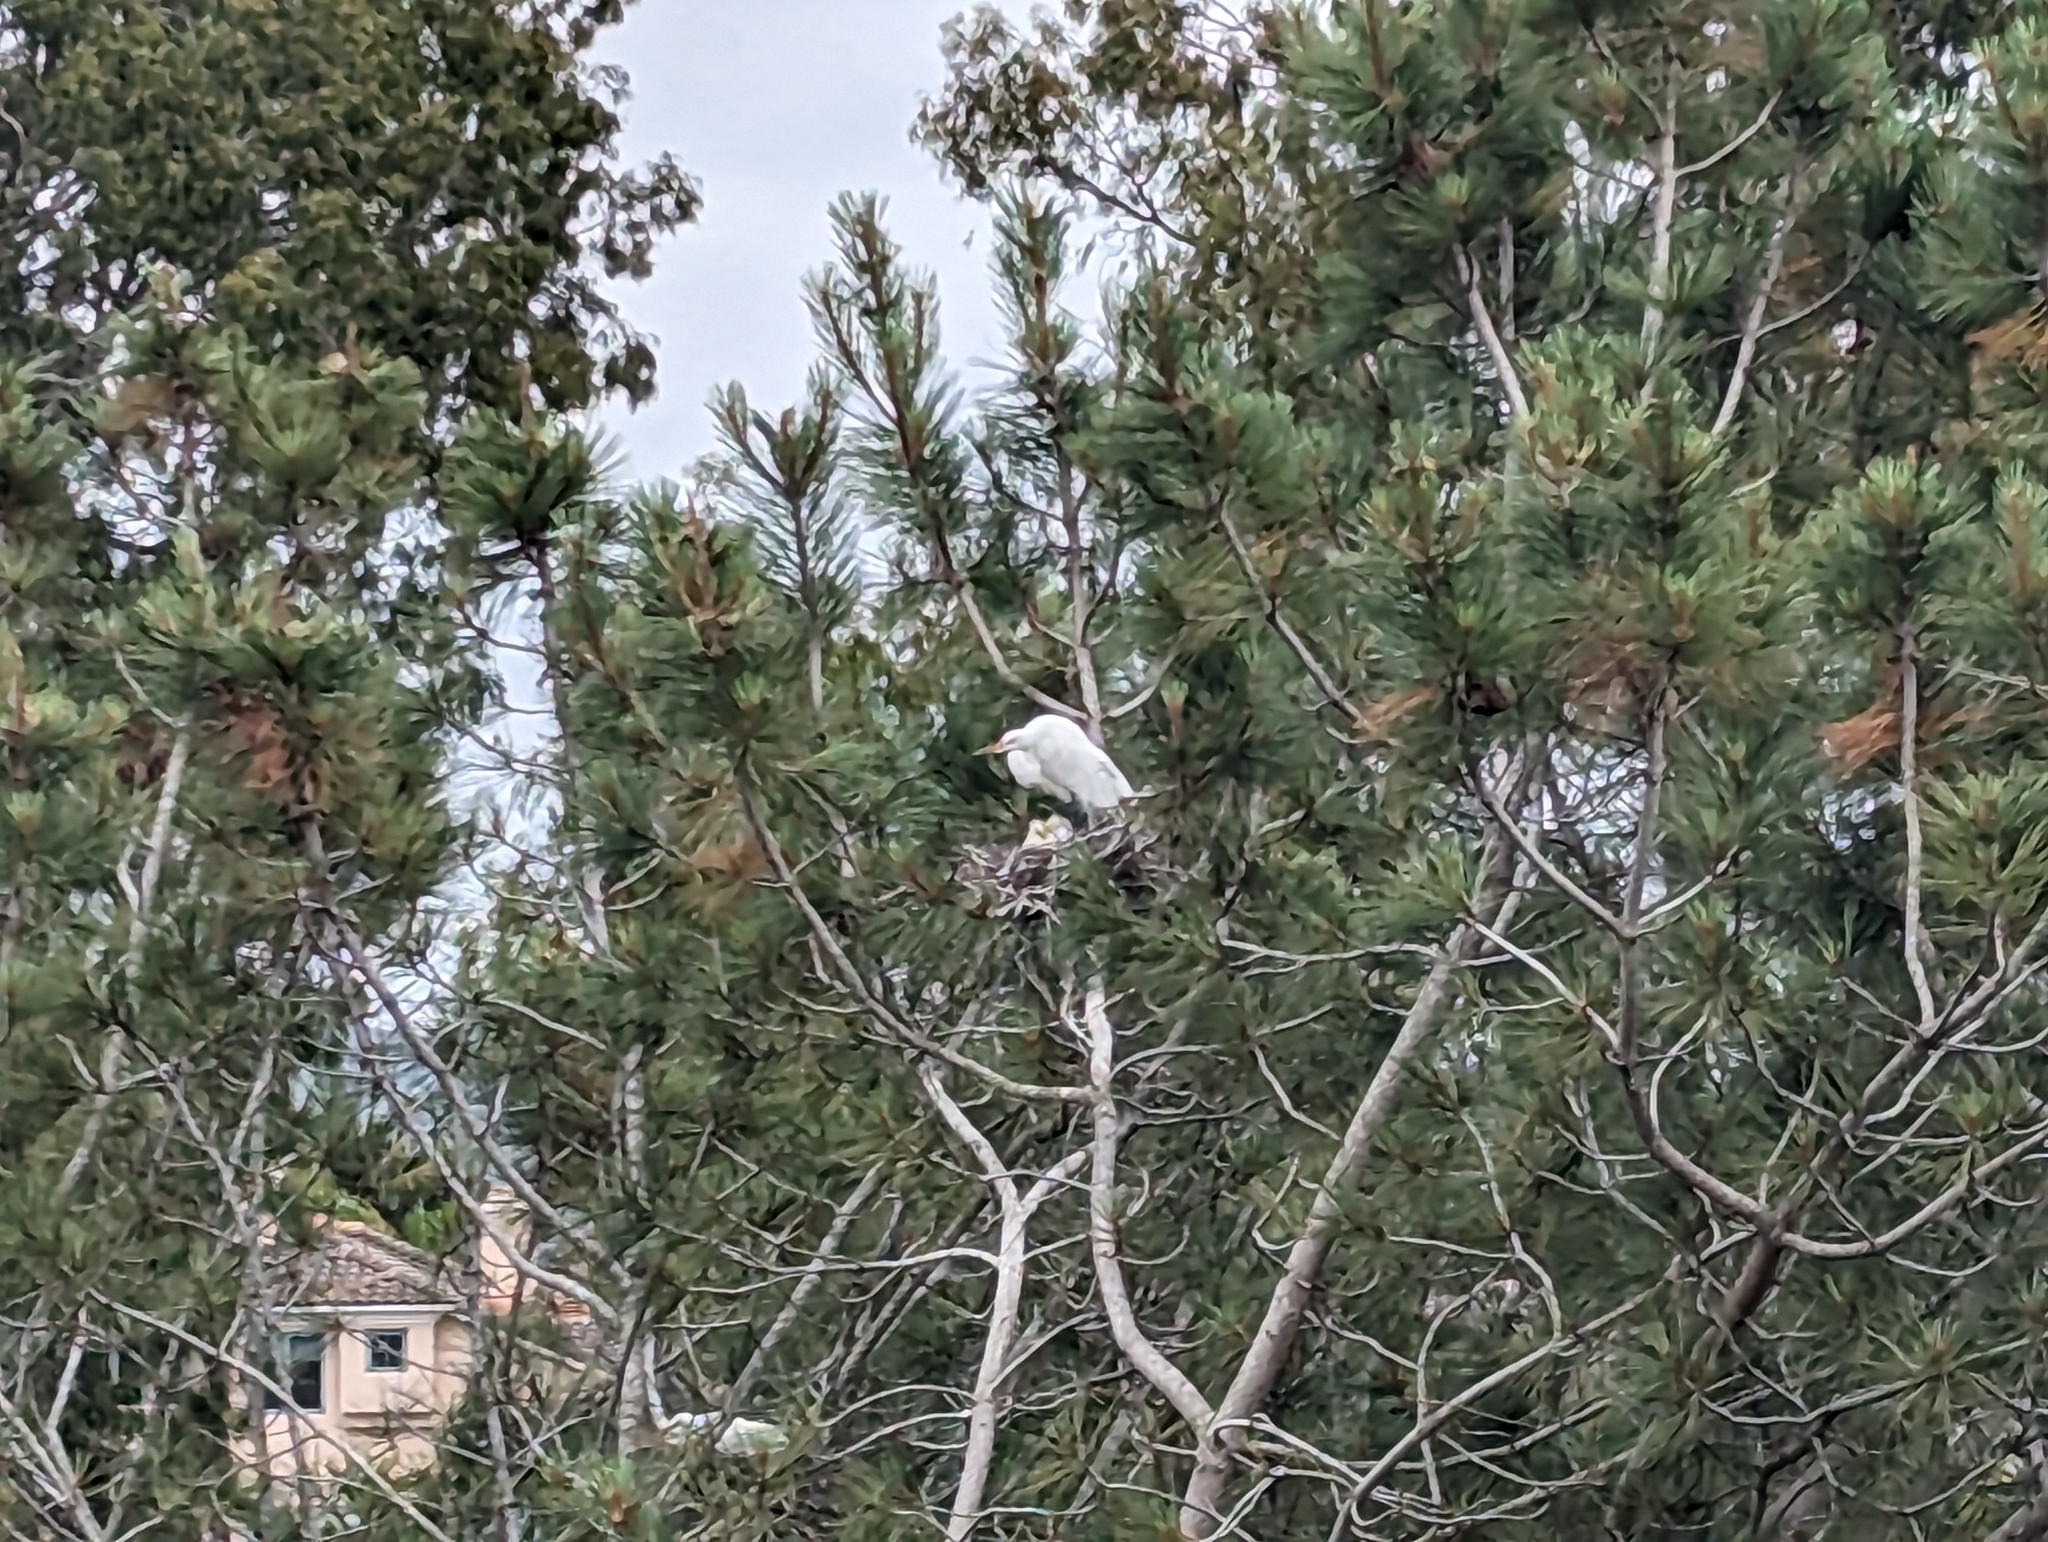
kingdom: Animalia
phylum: Chordata
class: Aves
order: Pelecaniformes
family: Ardeidae
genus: Ardea
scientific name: Ardea alba
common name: Great egret
